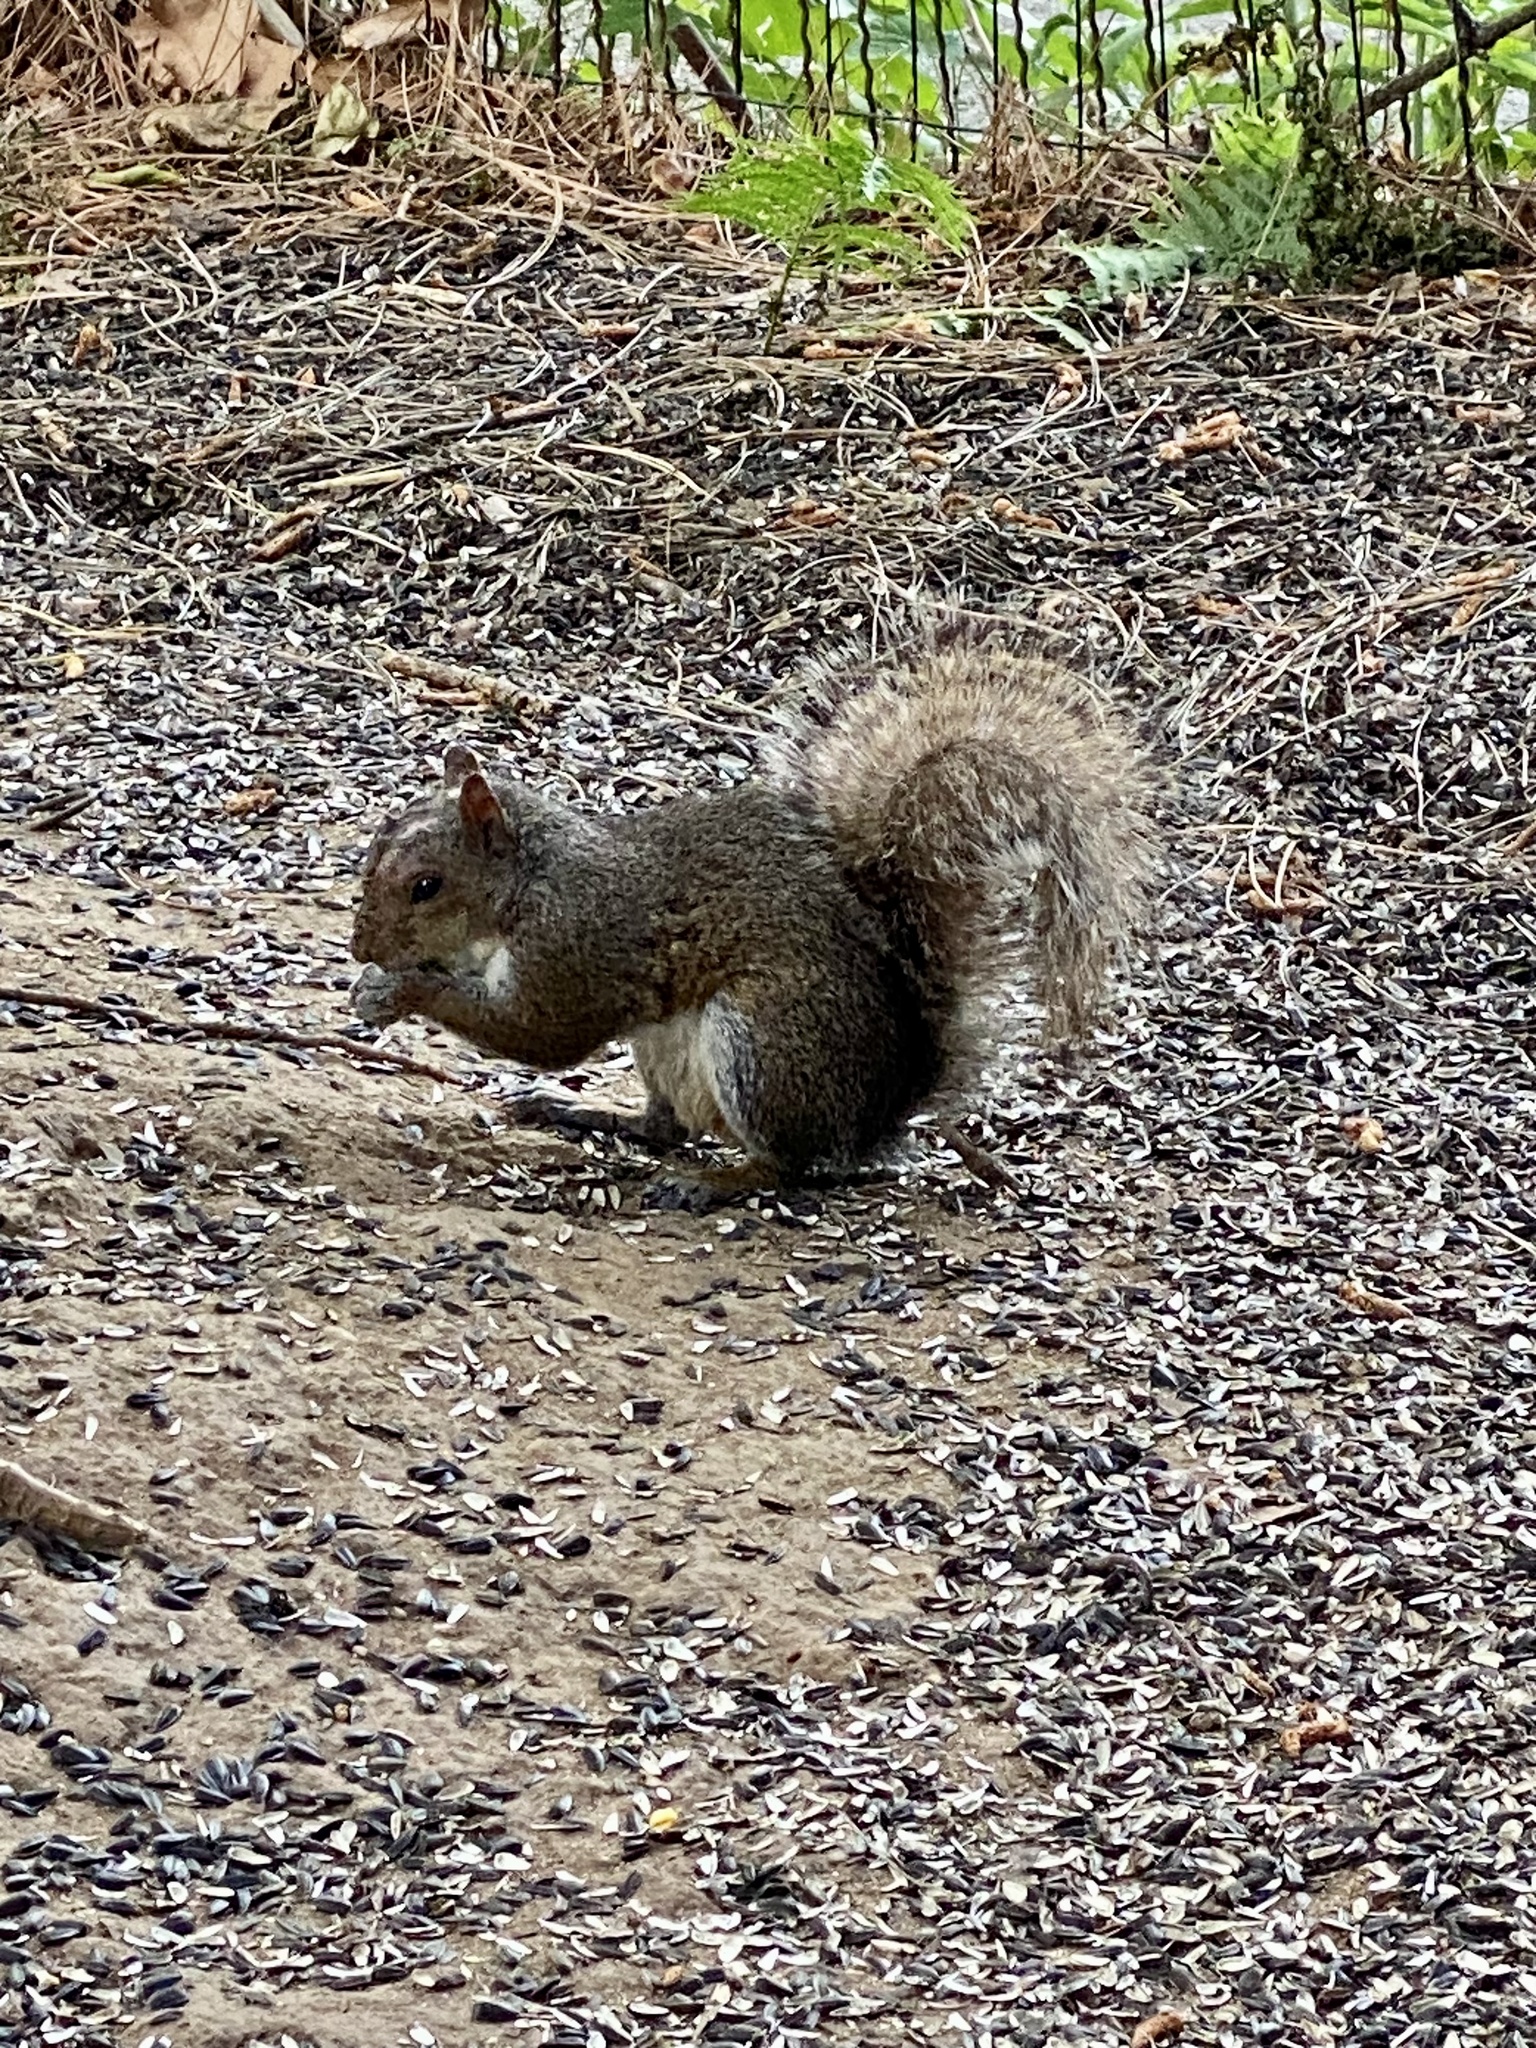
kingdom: Animalia
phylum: Chordata
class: Mammalia
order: Rodentia
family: Sciuridae
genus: Sciurus
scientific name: Sciurus carolinensis
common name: Eastern gray squirrel
